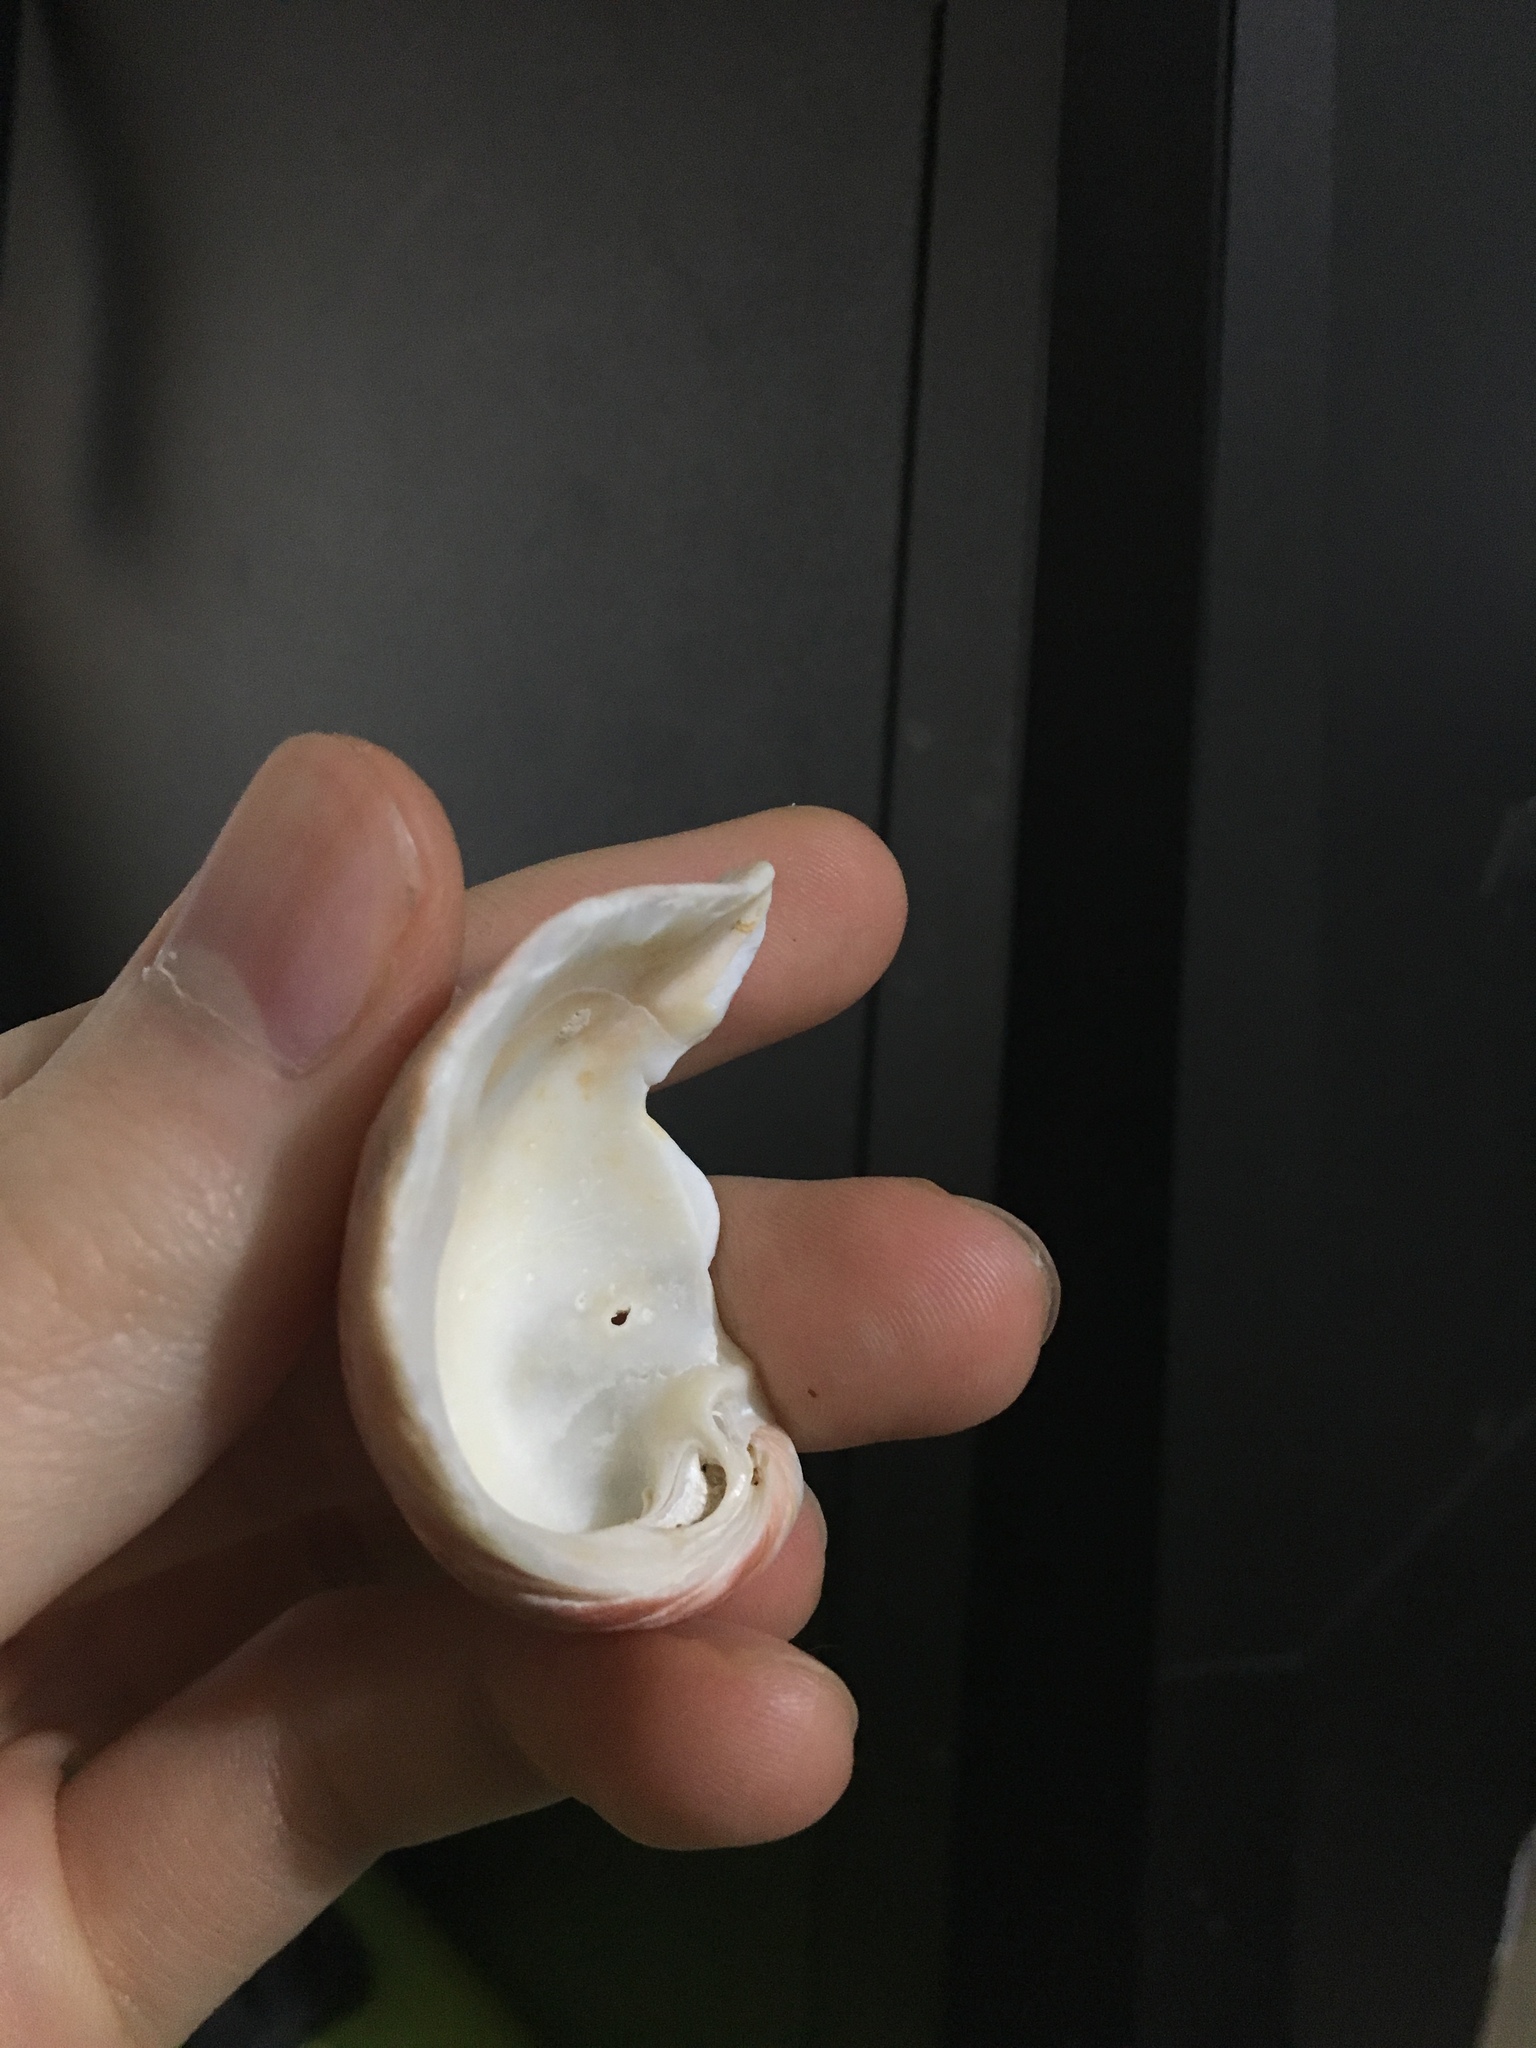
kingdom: Animalia
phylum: Mollusca
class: Bivalvia
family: Cleidothaeridae
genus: Cleidothaerus
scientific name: Cleidothaerus albidus
